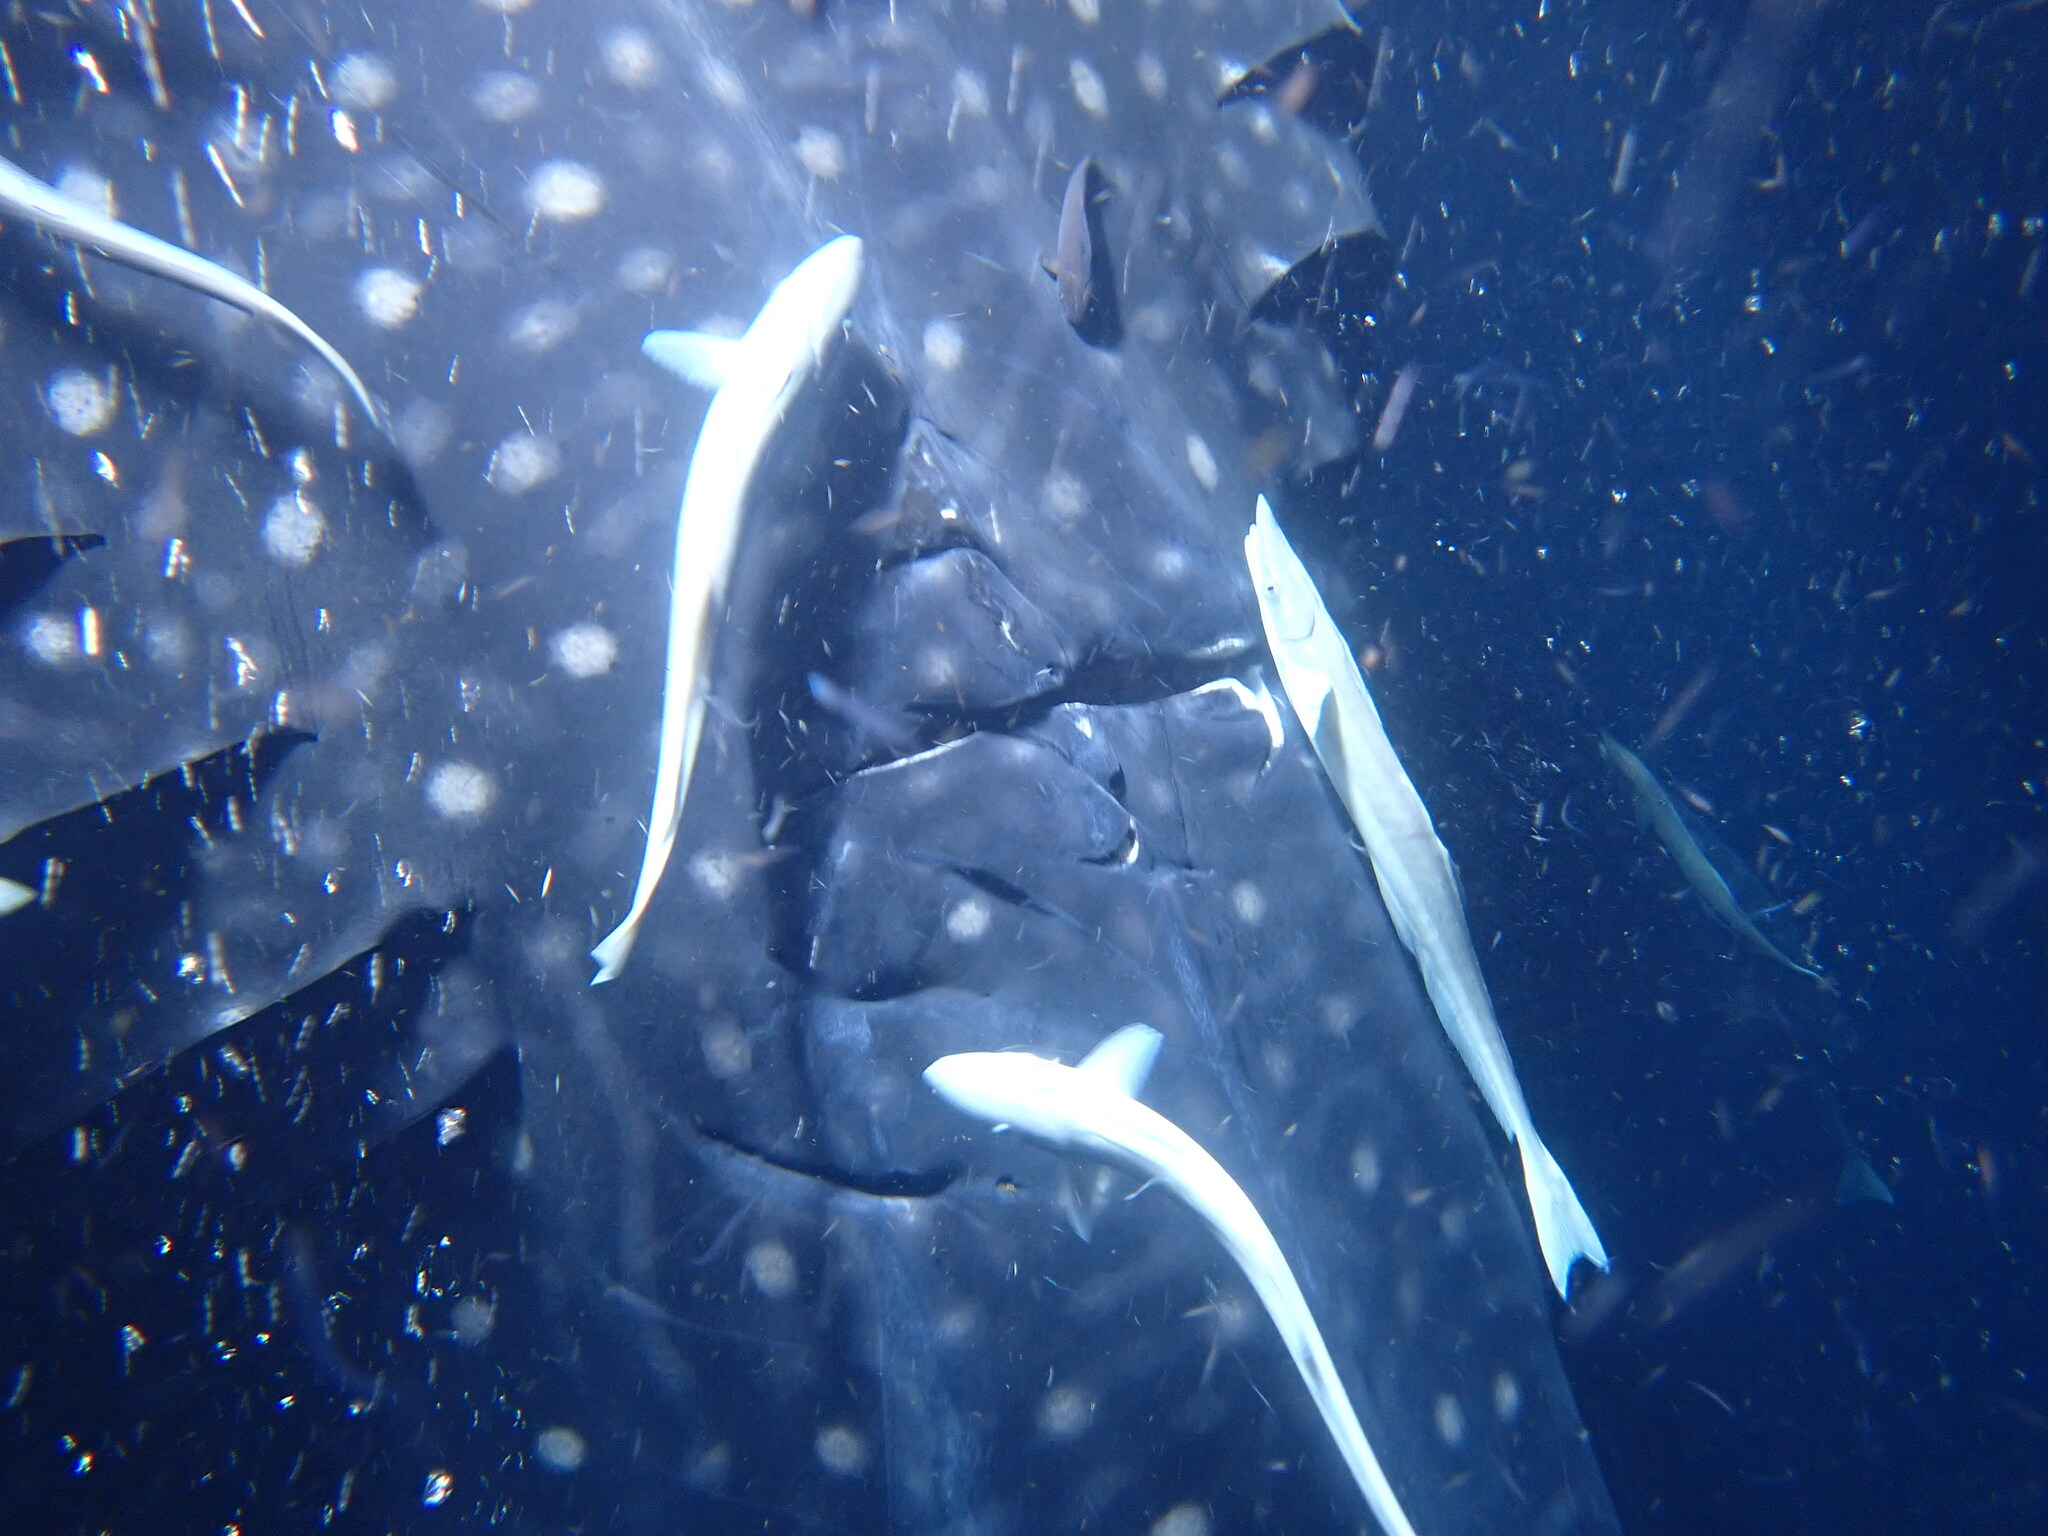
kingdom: Animalia
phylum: Chordata
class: Elasmobranchii
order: Orectolobiformes
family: Rhincodontidae
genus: Rhincodon
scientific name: Rhincodon typus
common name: Whale shark
